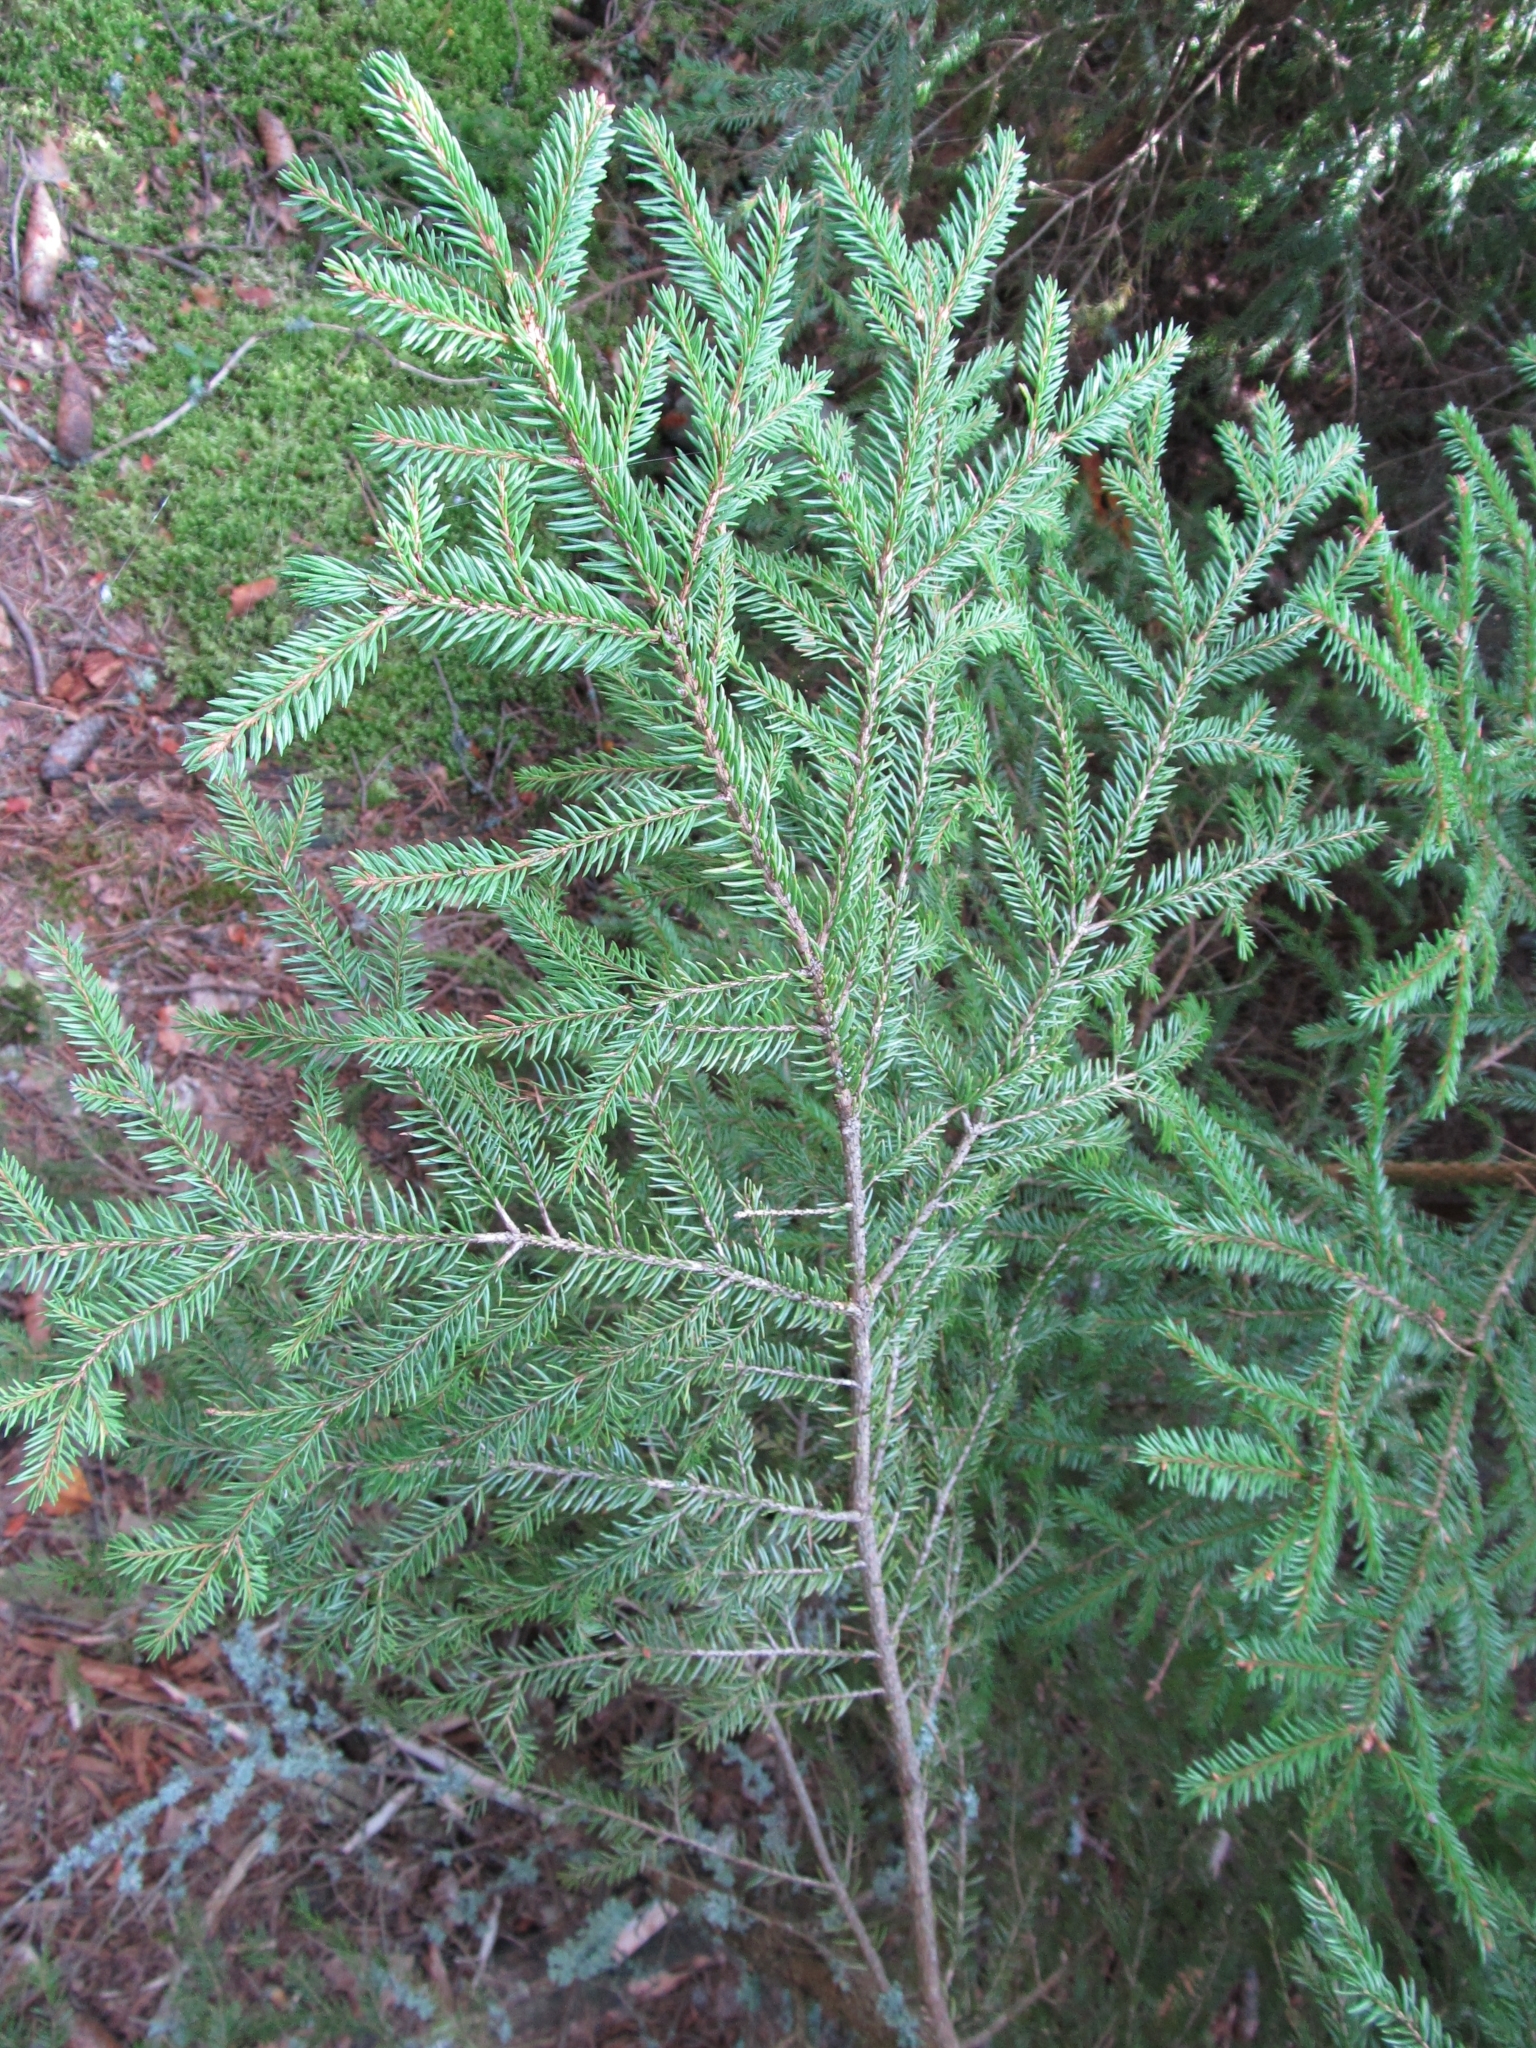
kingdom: Plantae
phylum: Tracheophyta
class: Pinopsida
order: Pinales
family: Pinaceae
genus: Picea
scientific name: Picea abies
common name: Norway spruce
